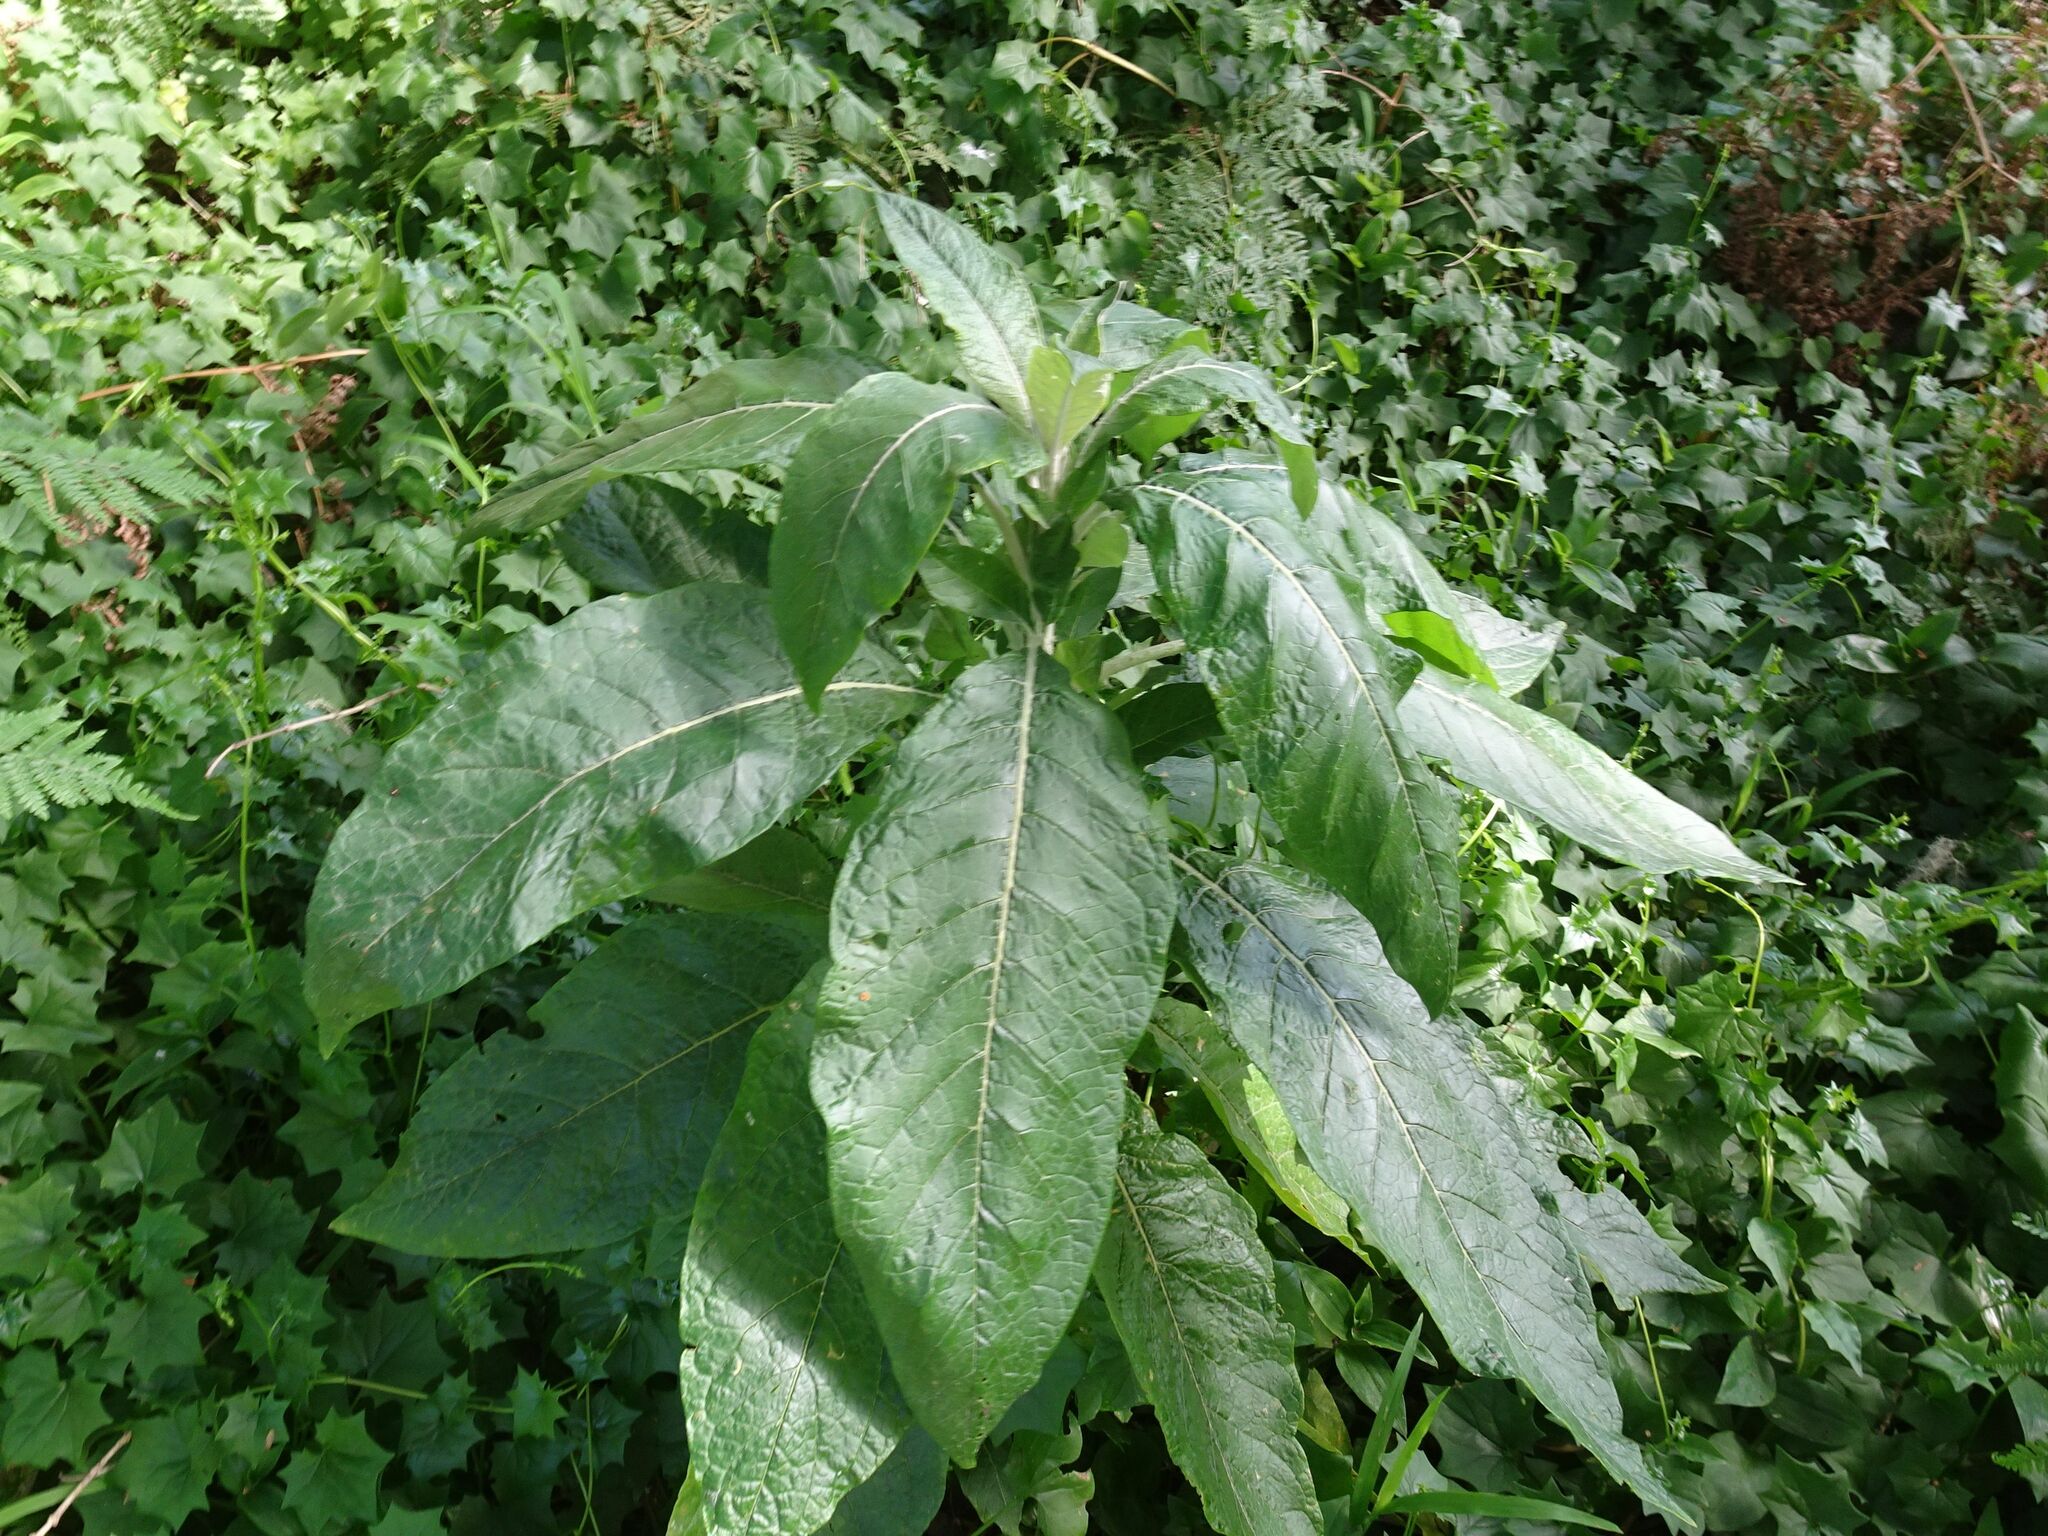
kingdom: Plantae
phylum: Tracheophyta
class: Magnoliopsida
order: Solanales
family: Solanaceae
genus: Solanum
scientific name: Solanum giganteum
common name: Healing-leaf-tree
